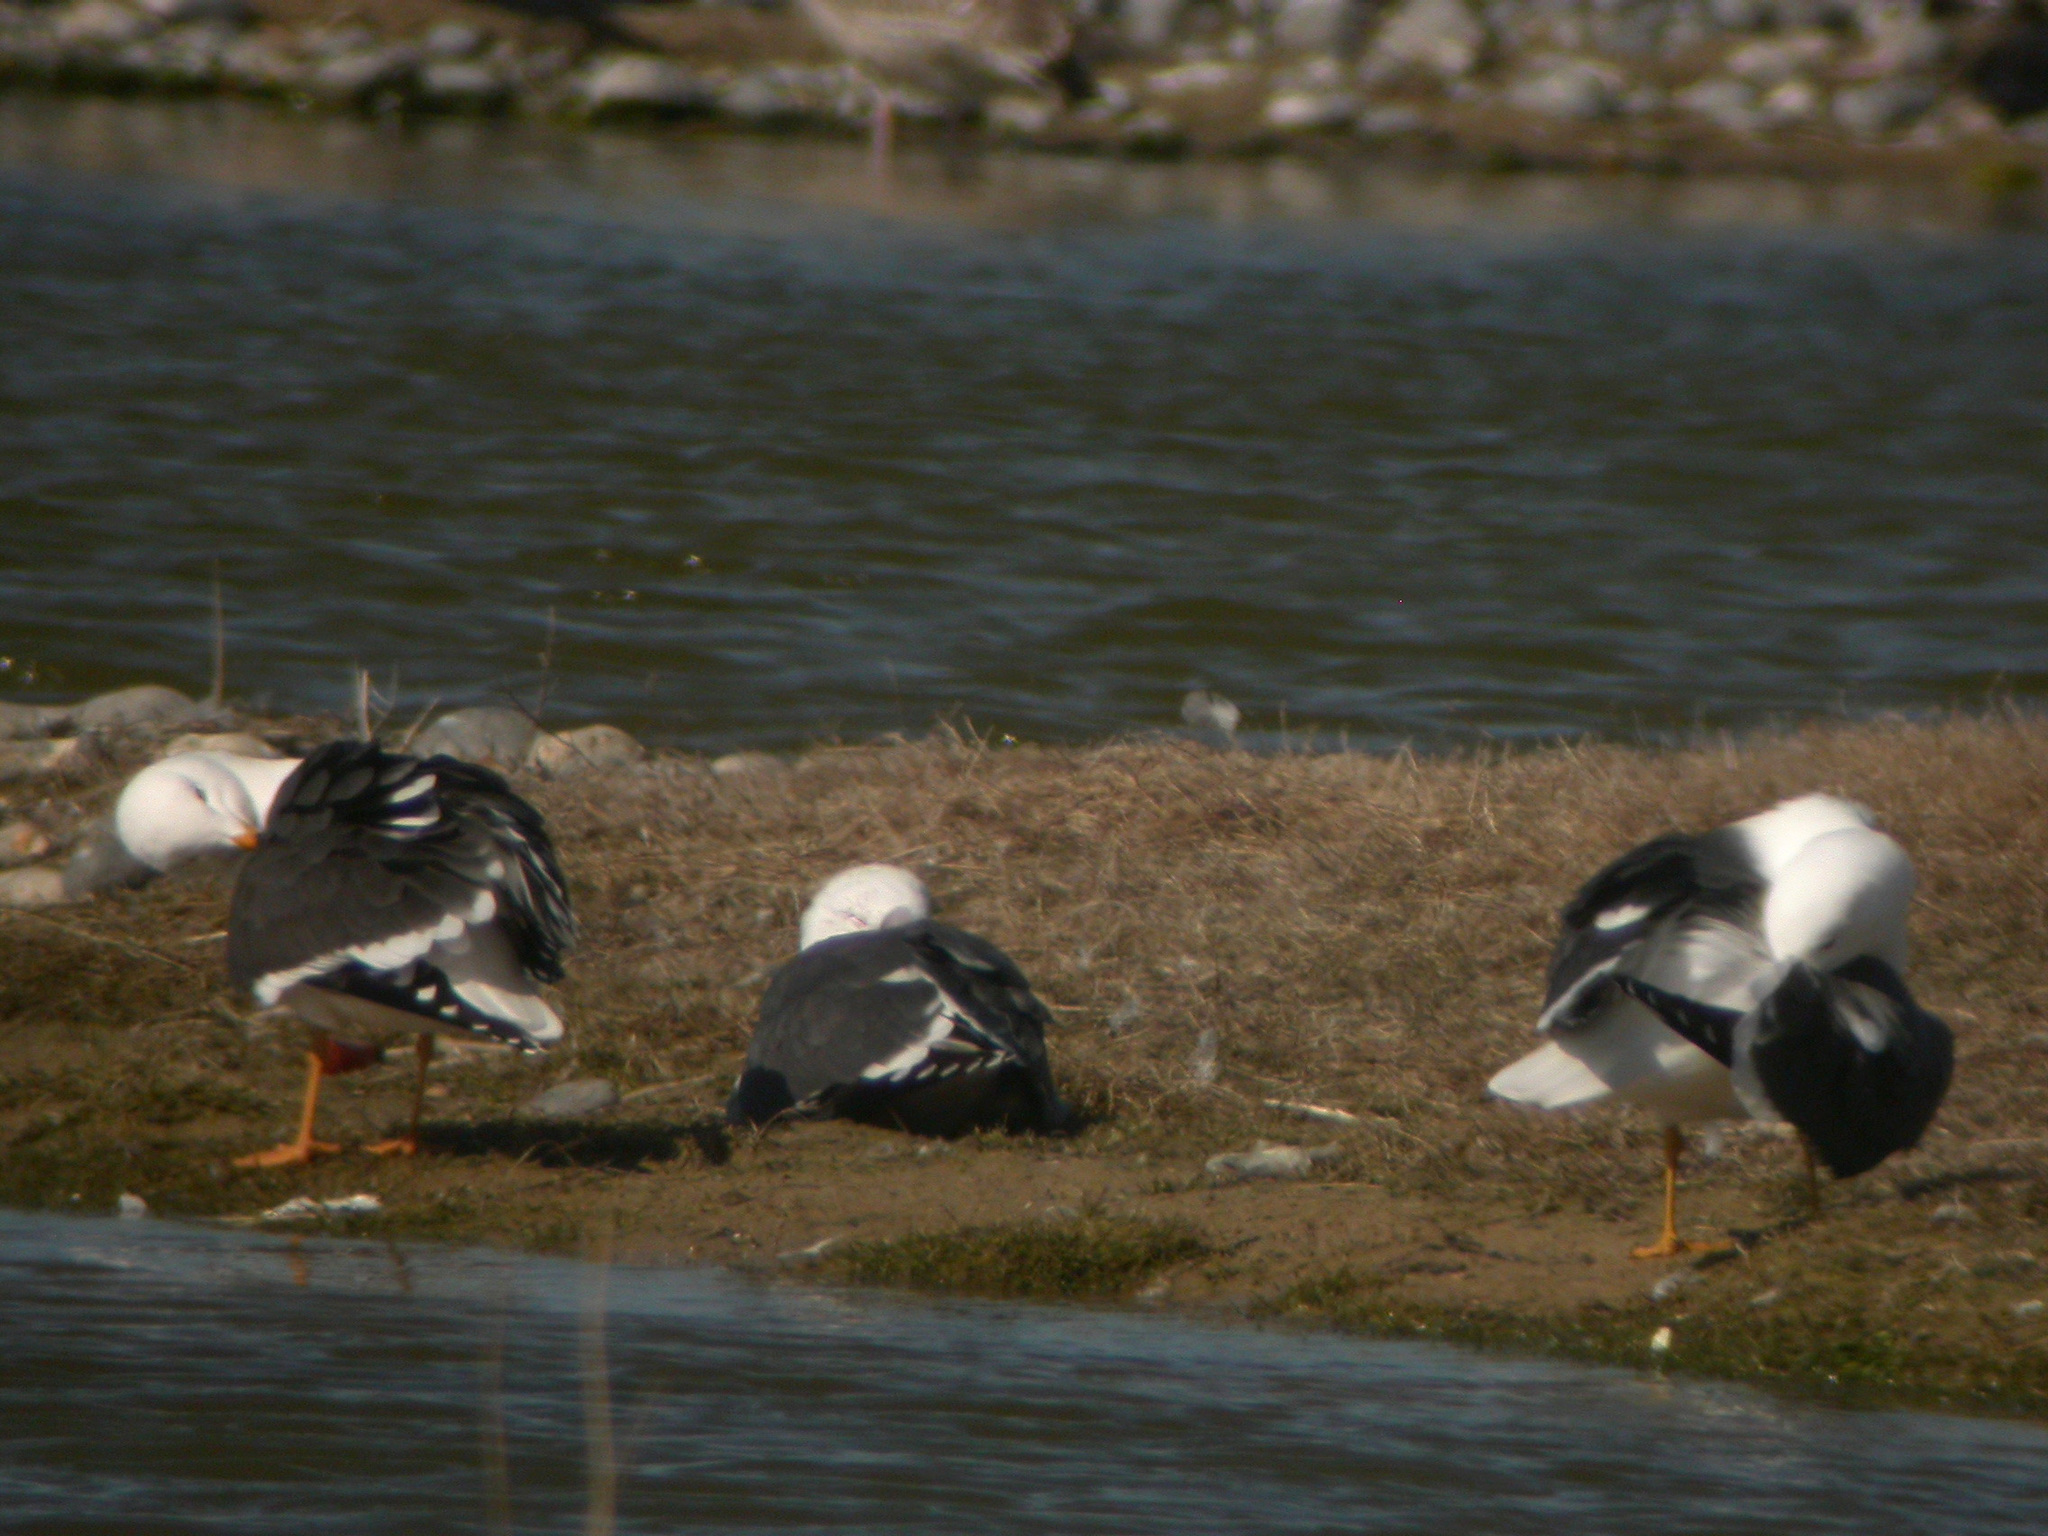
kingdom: Animalia
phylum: Chordata
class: Aves
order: Charadriiformes
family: Laridae
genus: Larus
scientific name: Larus fuscus
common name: Lesser black-backed gull
